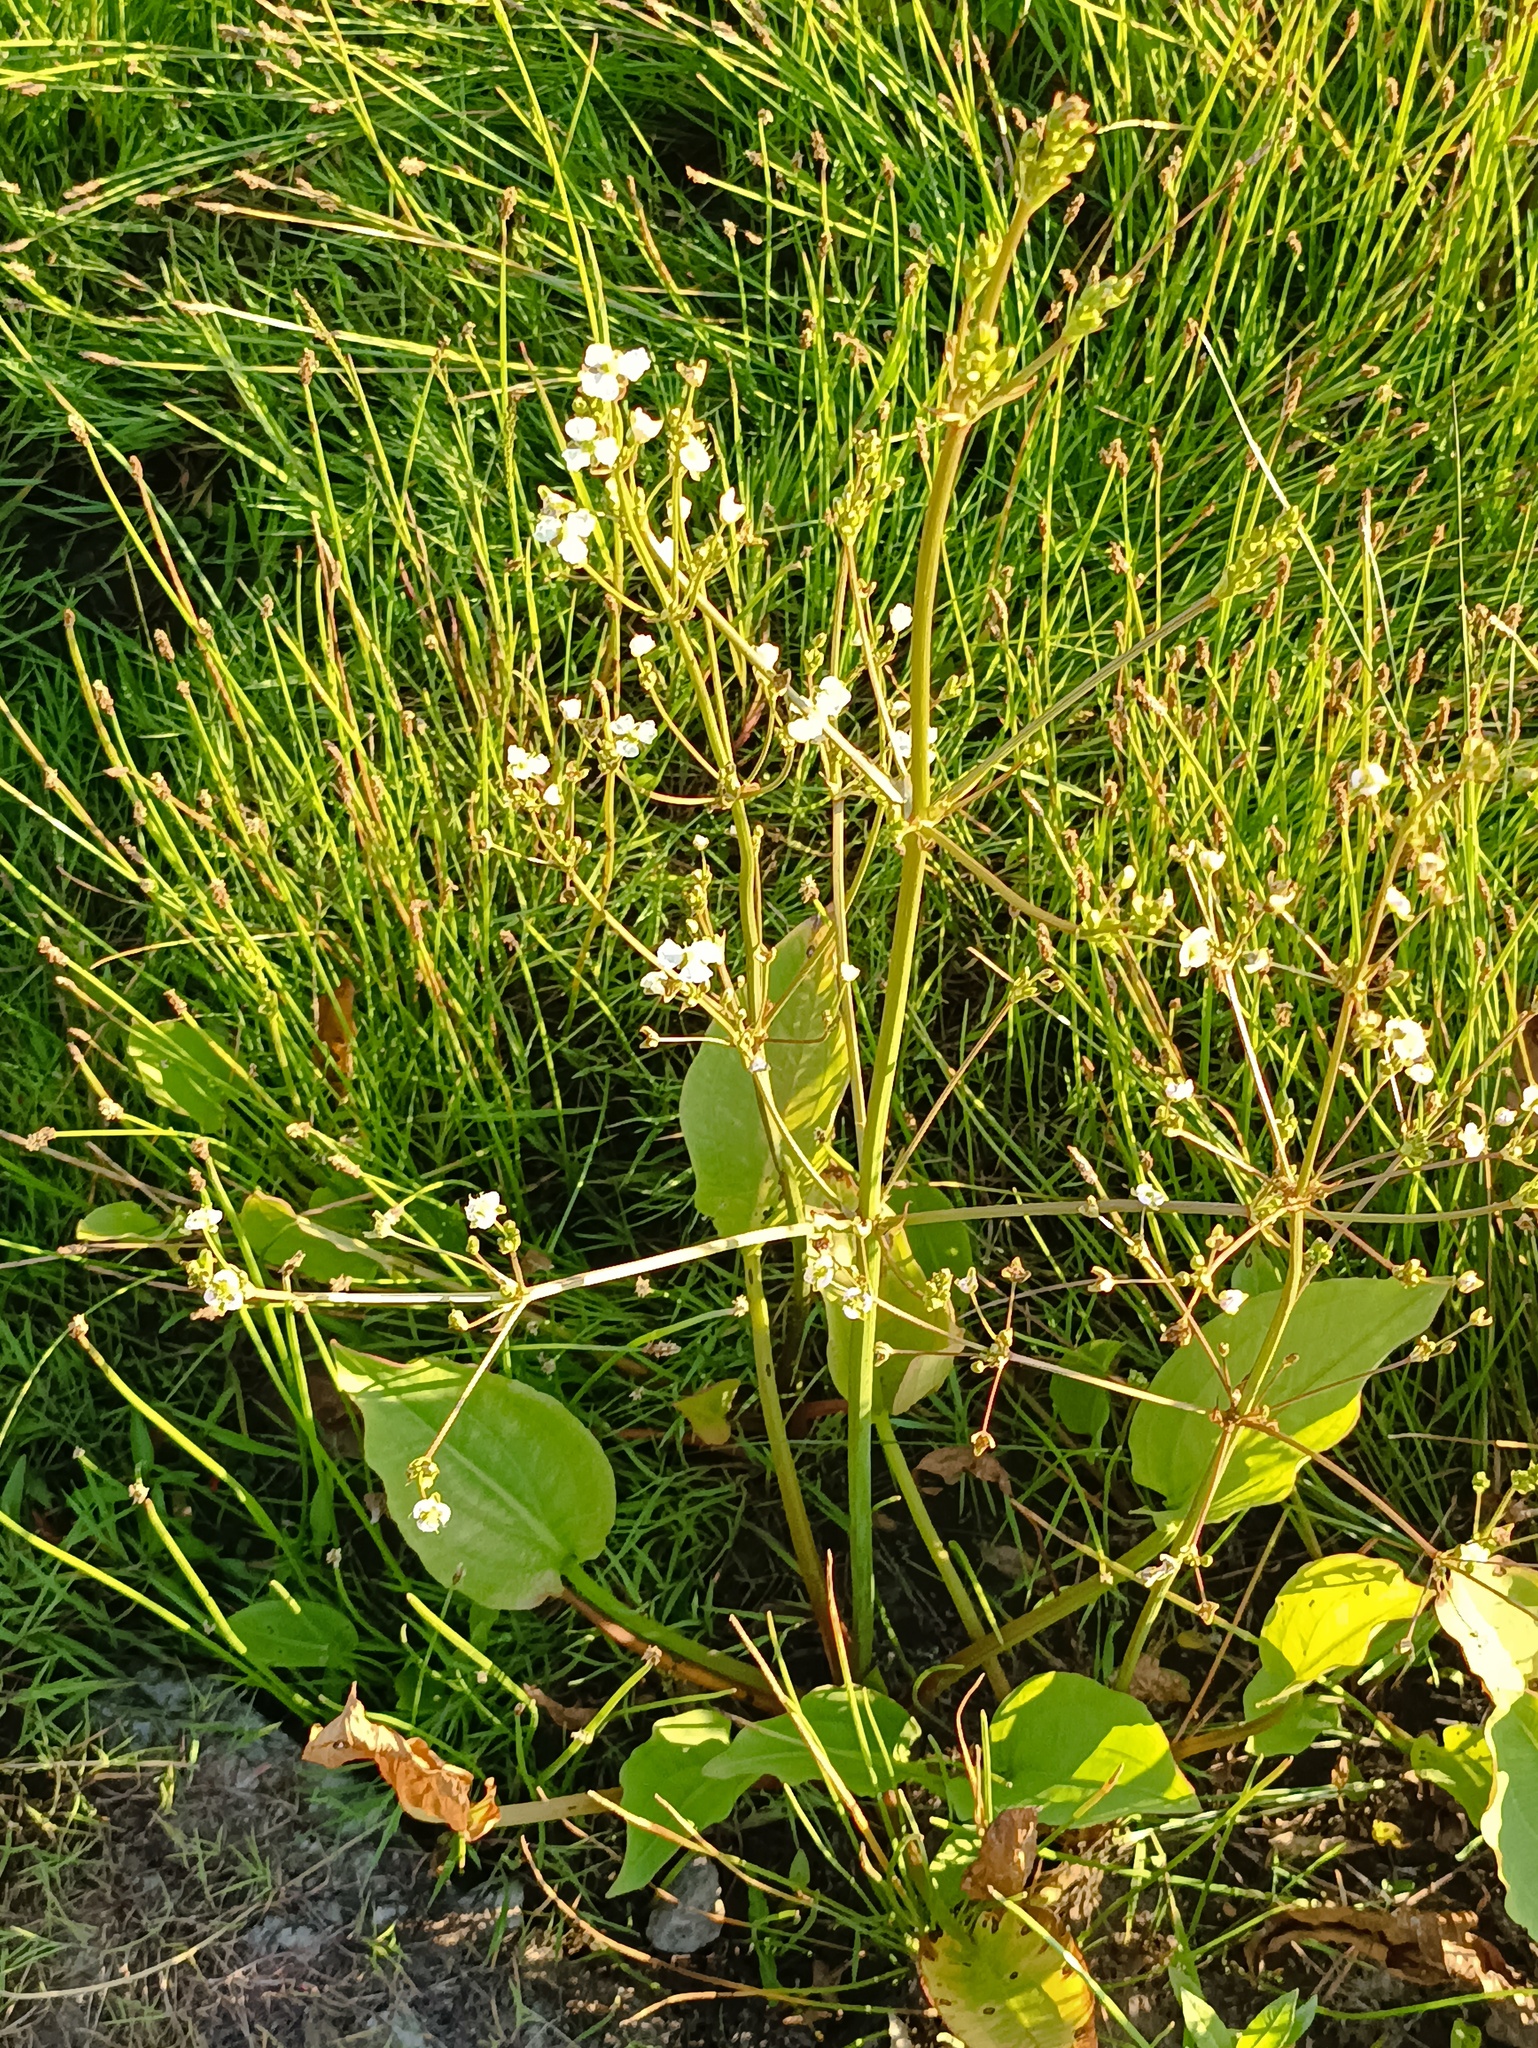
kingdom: Plantae
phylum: Tracheophyta
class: Liliopsida
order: Alismatales
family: Alismataceae
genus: Alisma
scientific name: Alisma plantago-aquatica
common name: Water-plantain
